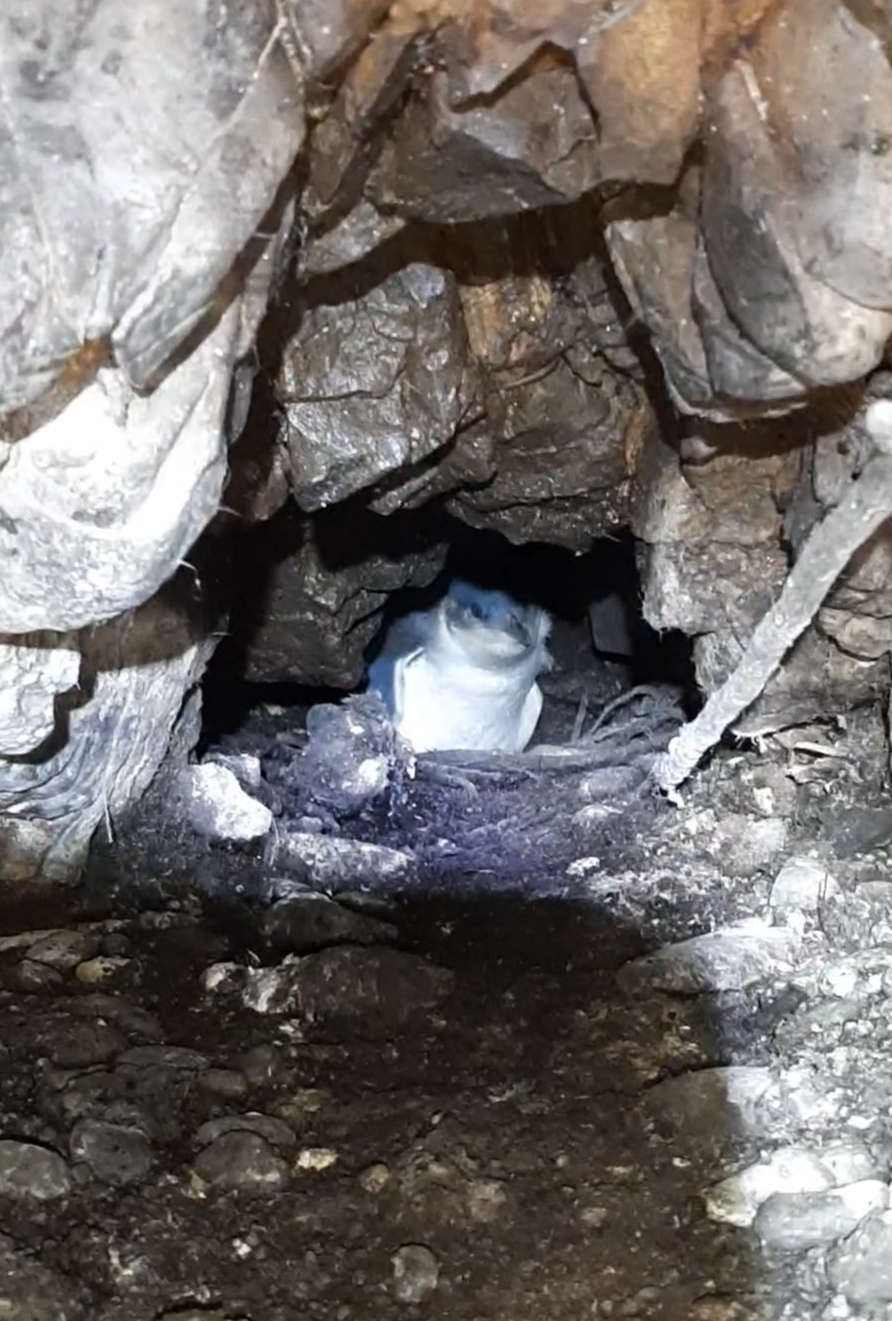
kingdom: Animalia
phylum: Chordata
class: Aves
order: Sphenisciformes
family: Spheniscidae
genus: Eudyptula
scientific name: Eudyptula minor
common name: Little penguin
